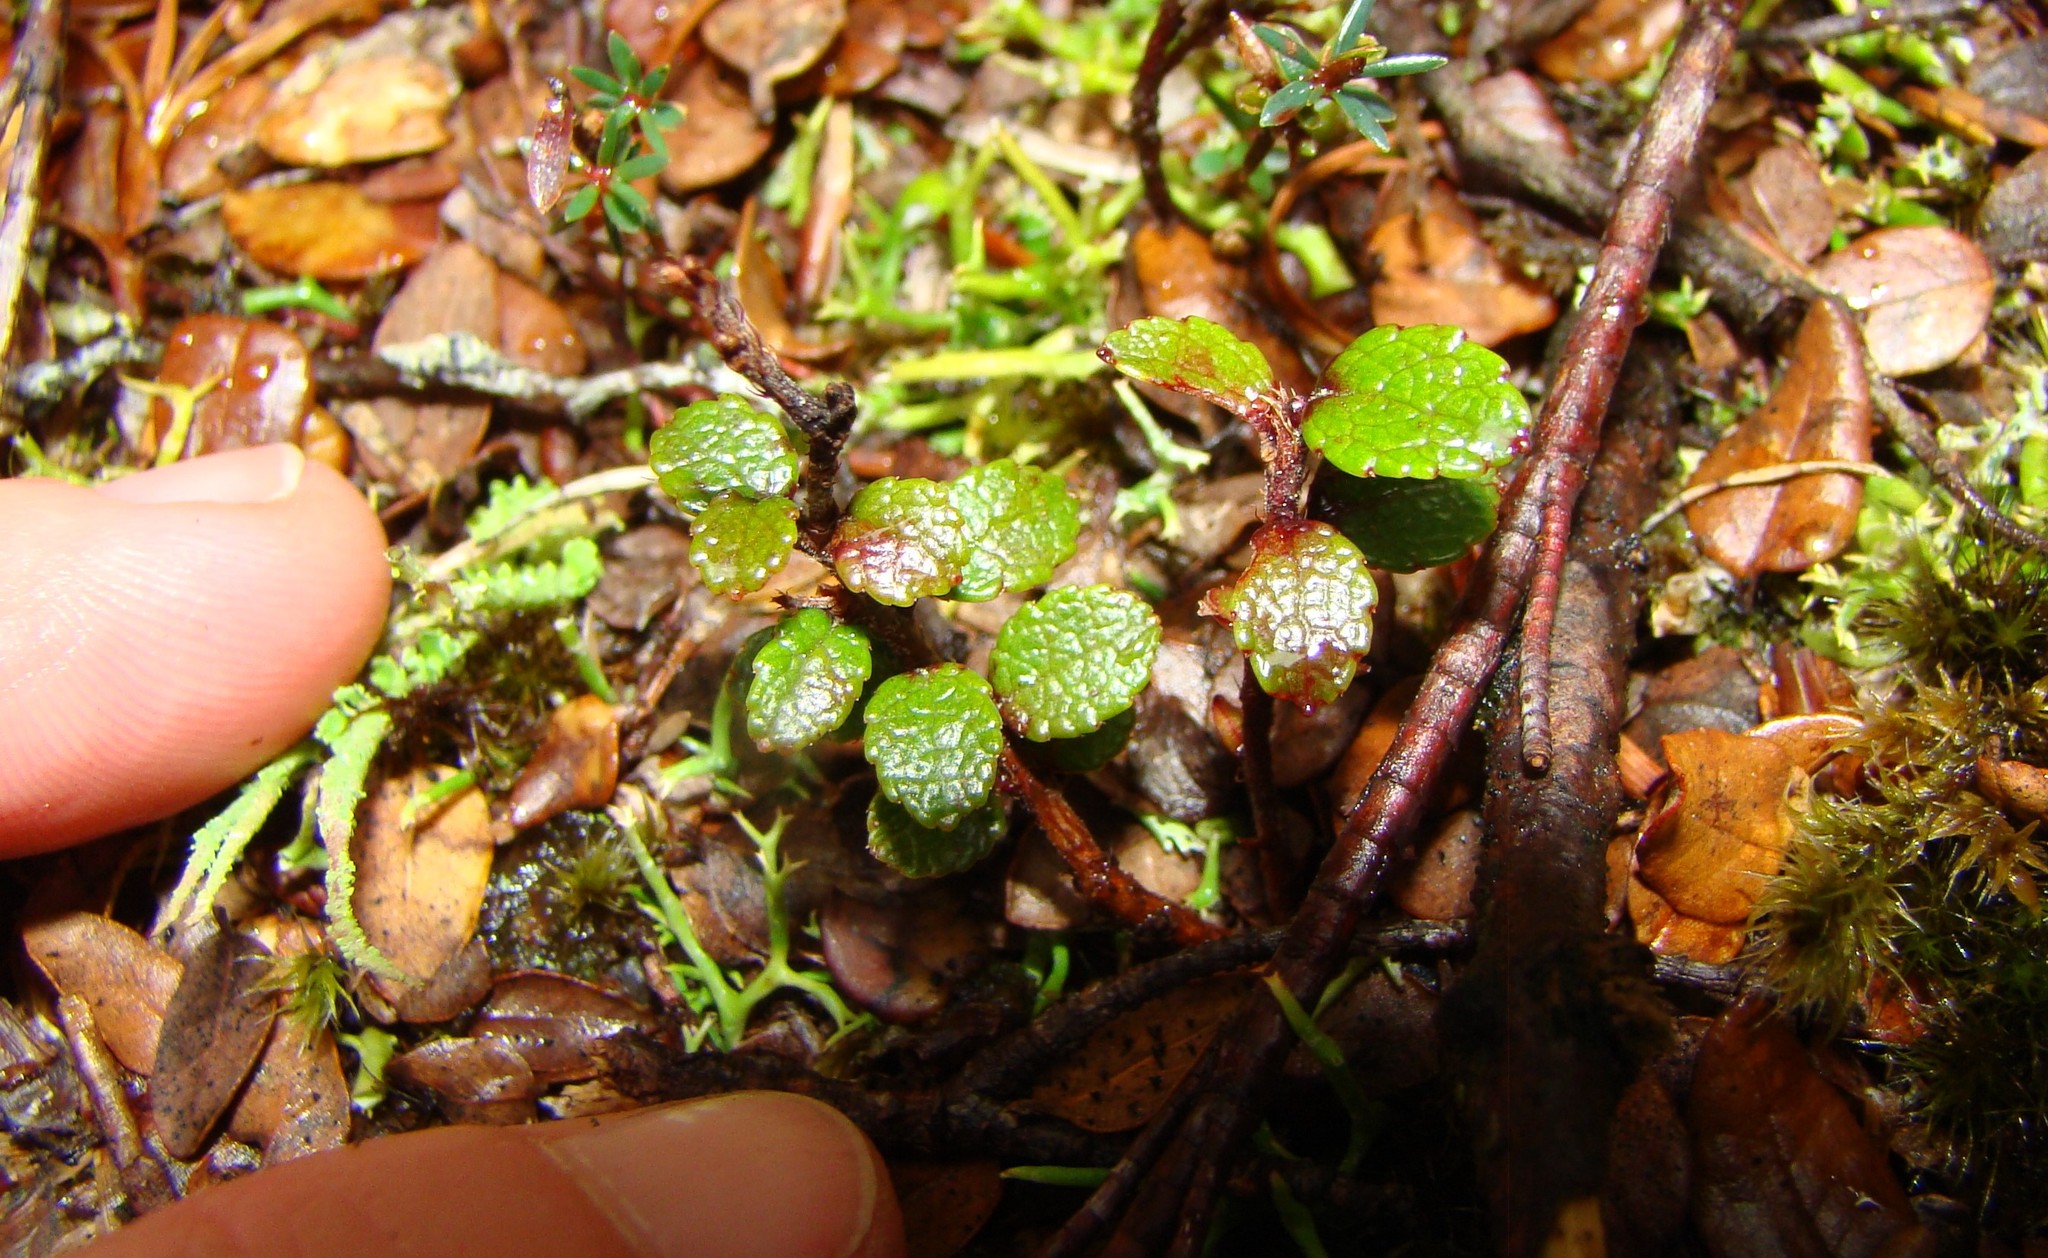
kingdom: Plantae
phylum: Tracheophyta
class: Magnoliopsida
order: Ericales
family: Ericaceae
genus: Gaultheria
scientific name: Gaultheria depressa
